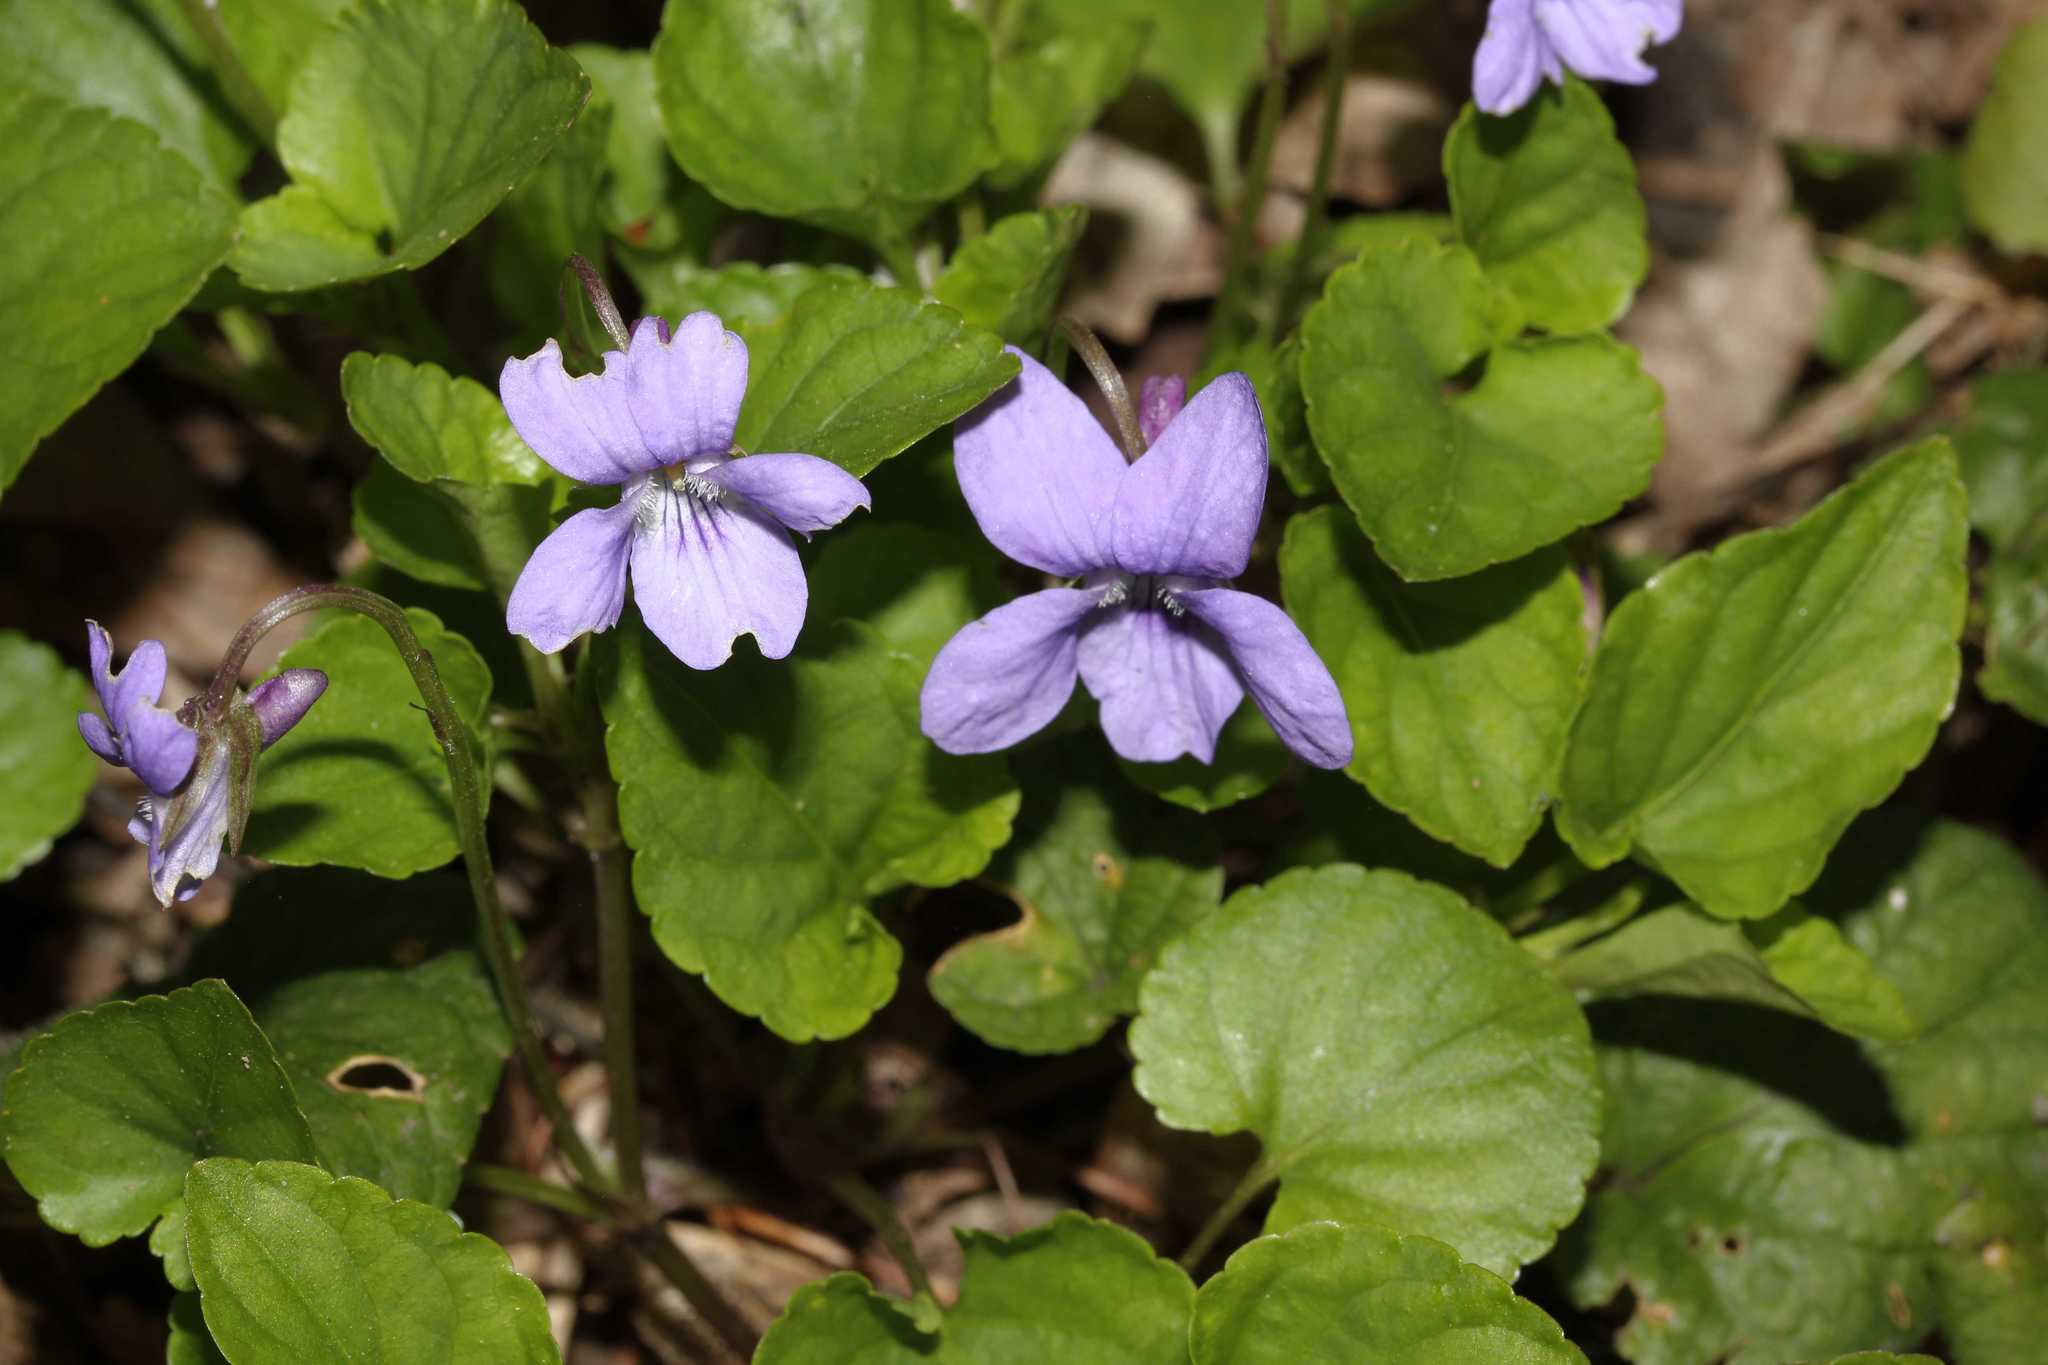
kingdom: Plantae
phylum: Tracheophyta
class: Magnoliopsida
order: Malpighiales
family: Violaceae
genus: Viola
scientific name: Viola reichenbachiana
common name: Early dog-violet
